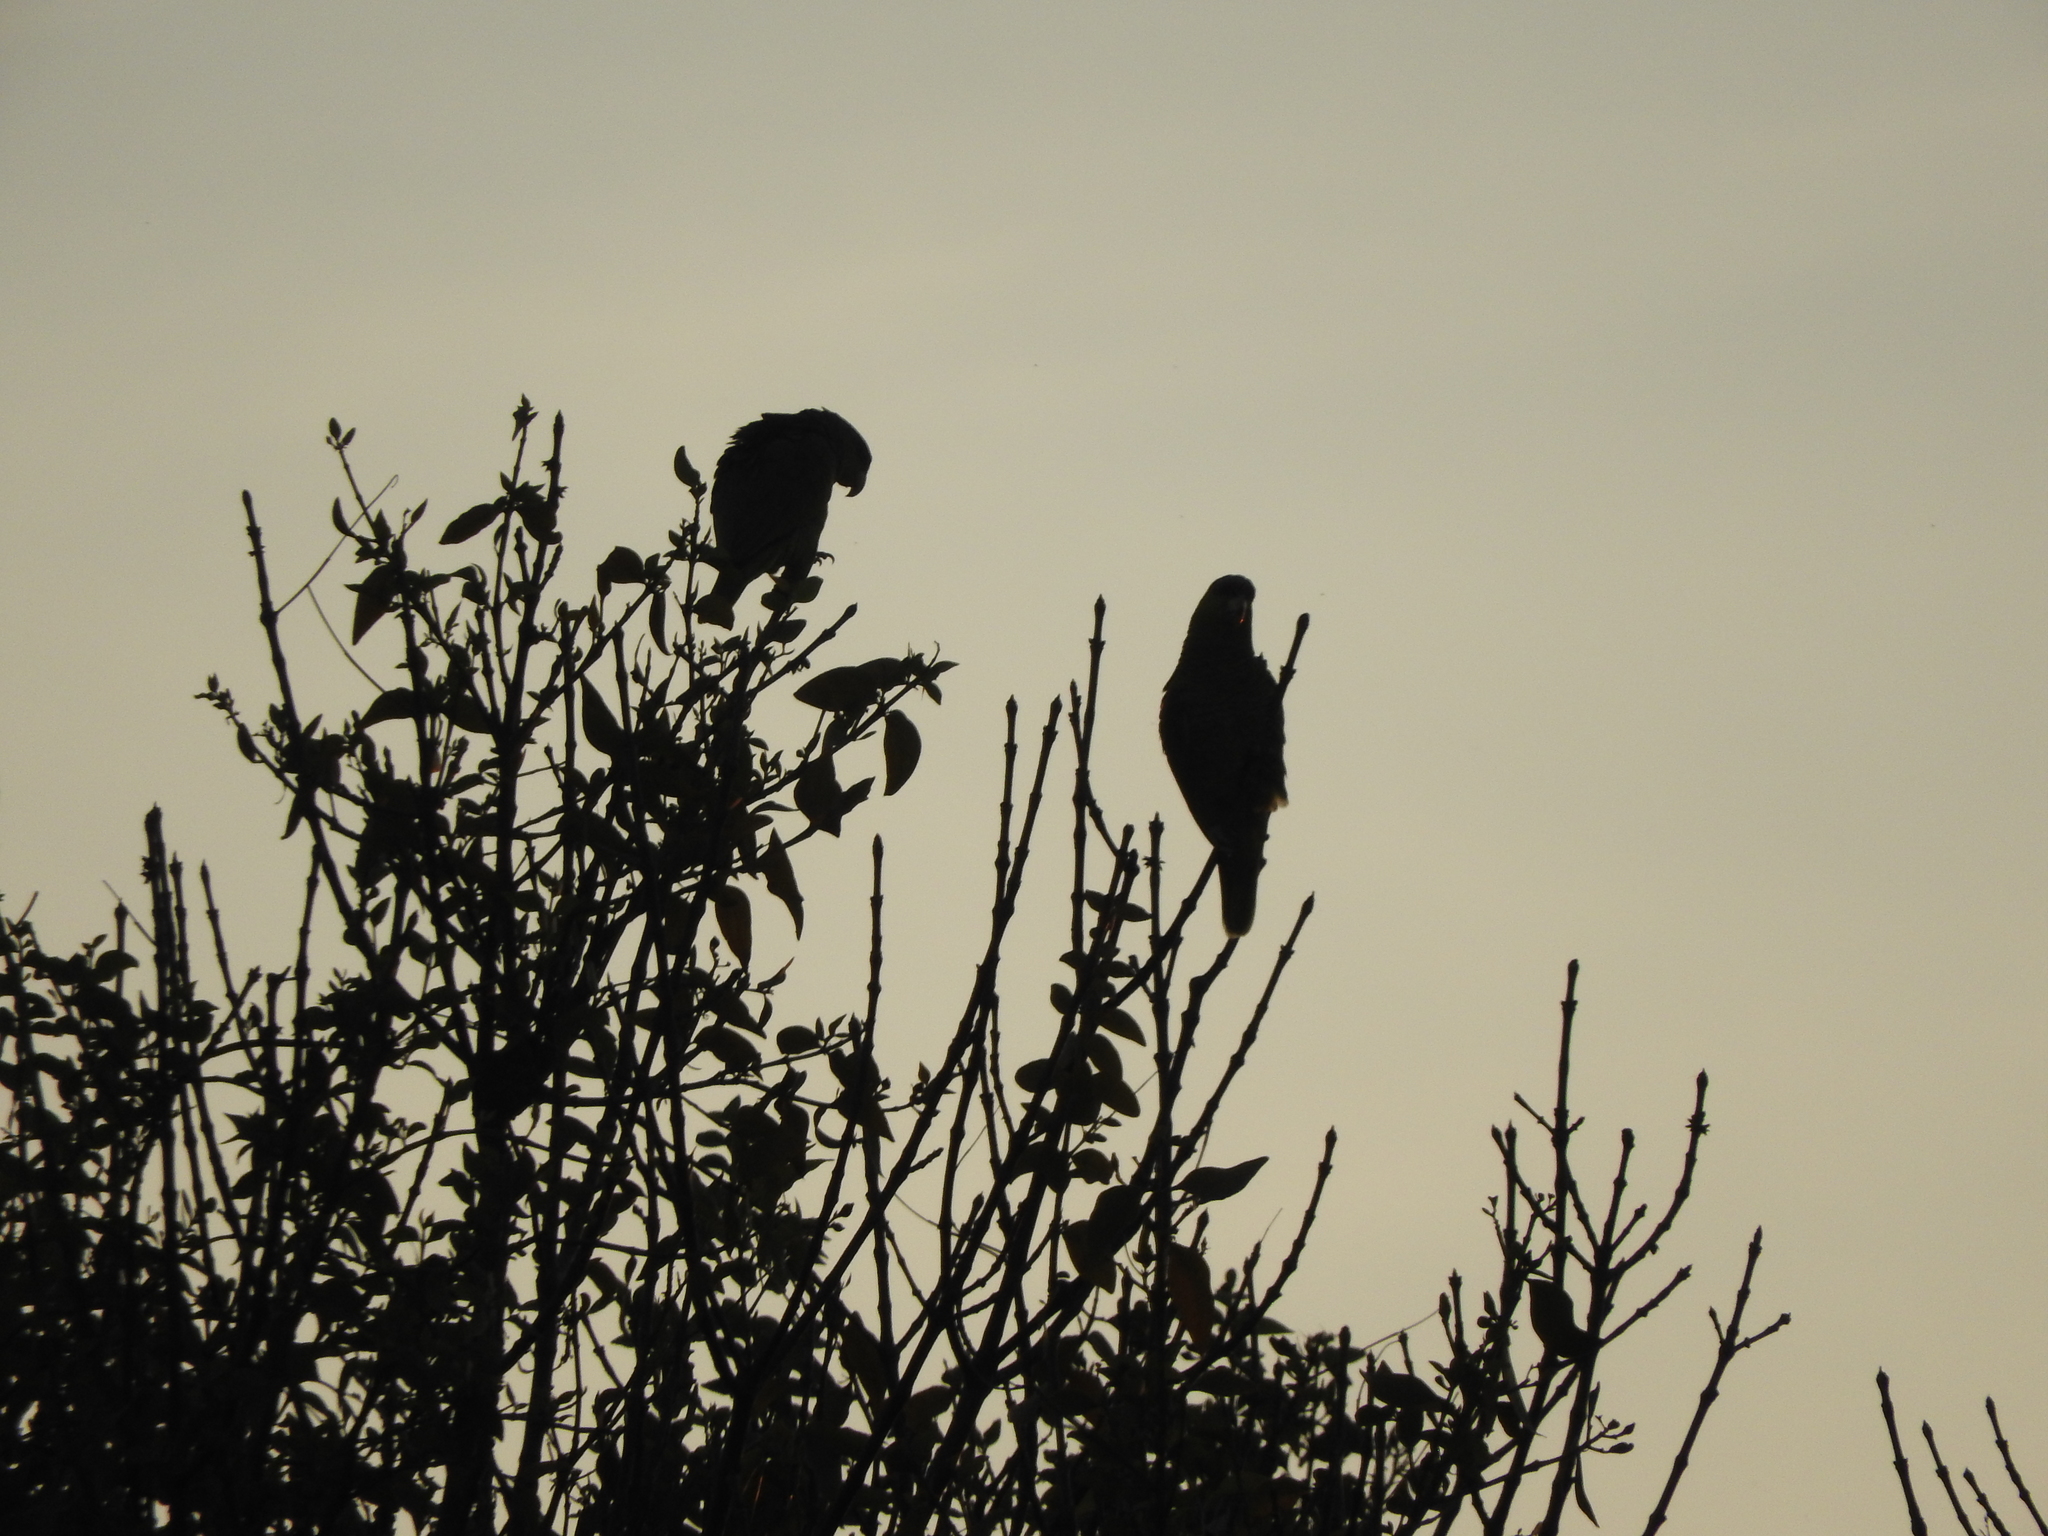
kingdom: Animalia
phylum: Chordata
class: Aves
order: Psittaciformes
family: Psittacidae
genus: Amazona
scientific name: Amazona finschi
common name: Lilac-crowned amazon
